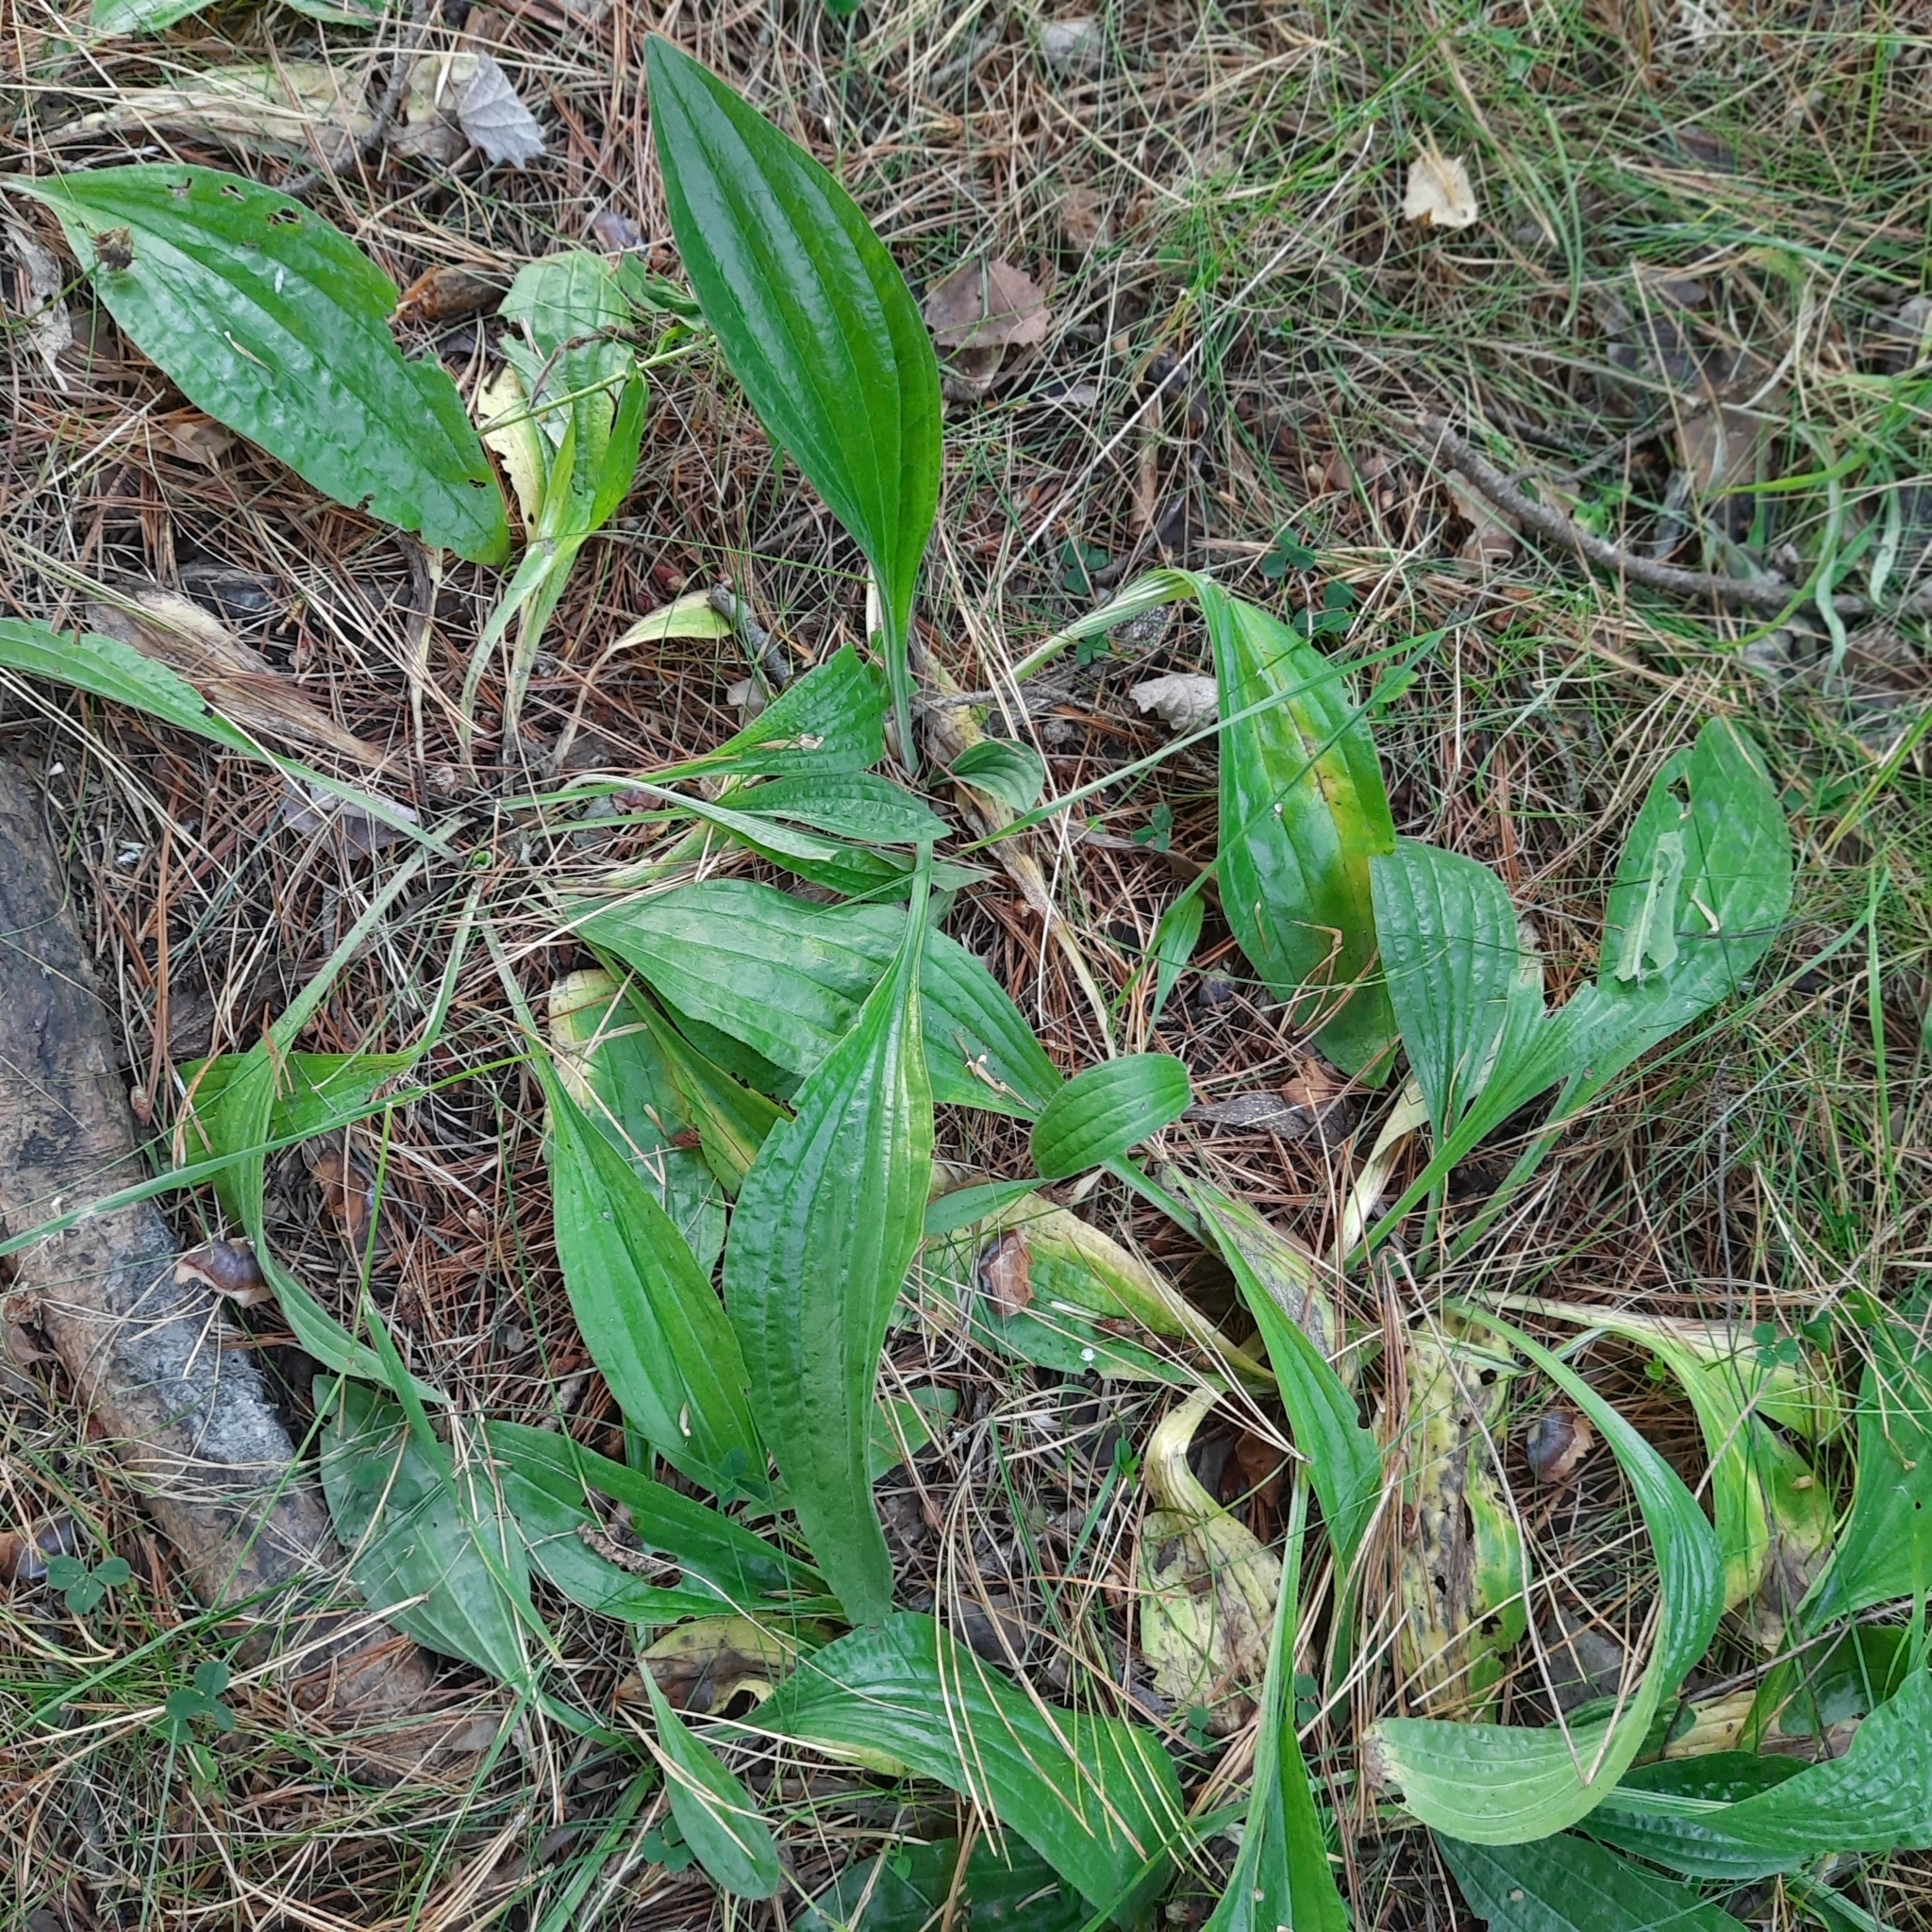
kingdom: Plantae
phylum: Tracheophyta
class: Magnoliopsida
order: Lamiales
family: Plantaginaceae
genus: Plantago
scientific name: Plantago lanceolata
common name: Ribwort plantain
